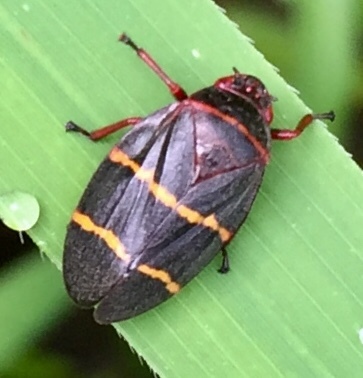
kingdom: Animalia
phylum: Arthropoda
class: Insecta
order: Hemiptera
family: Cercopidae
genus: Prosapia
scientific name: Prosapia bicincta
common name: Twolined spittlebug
